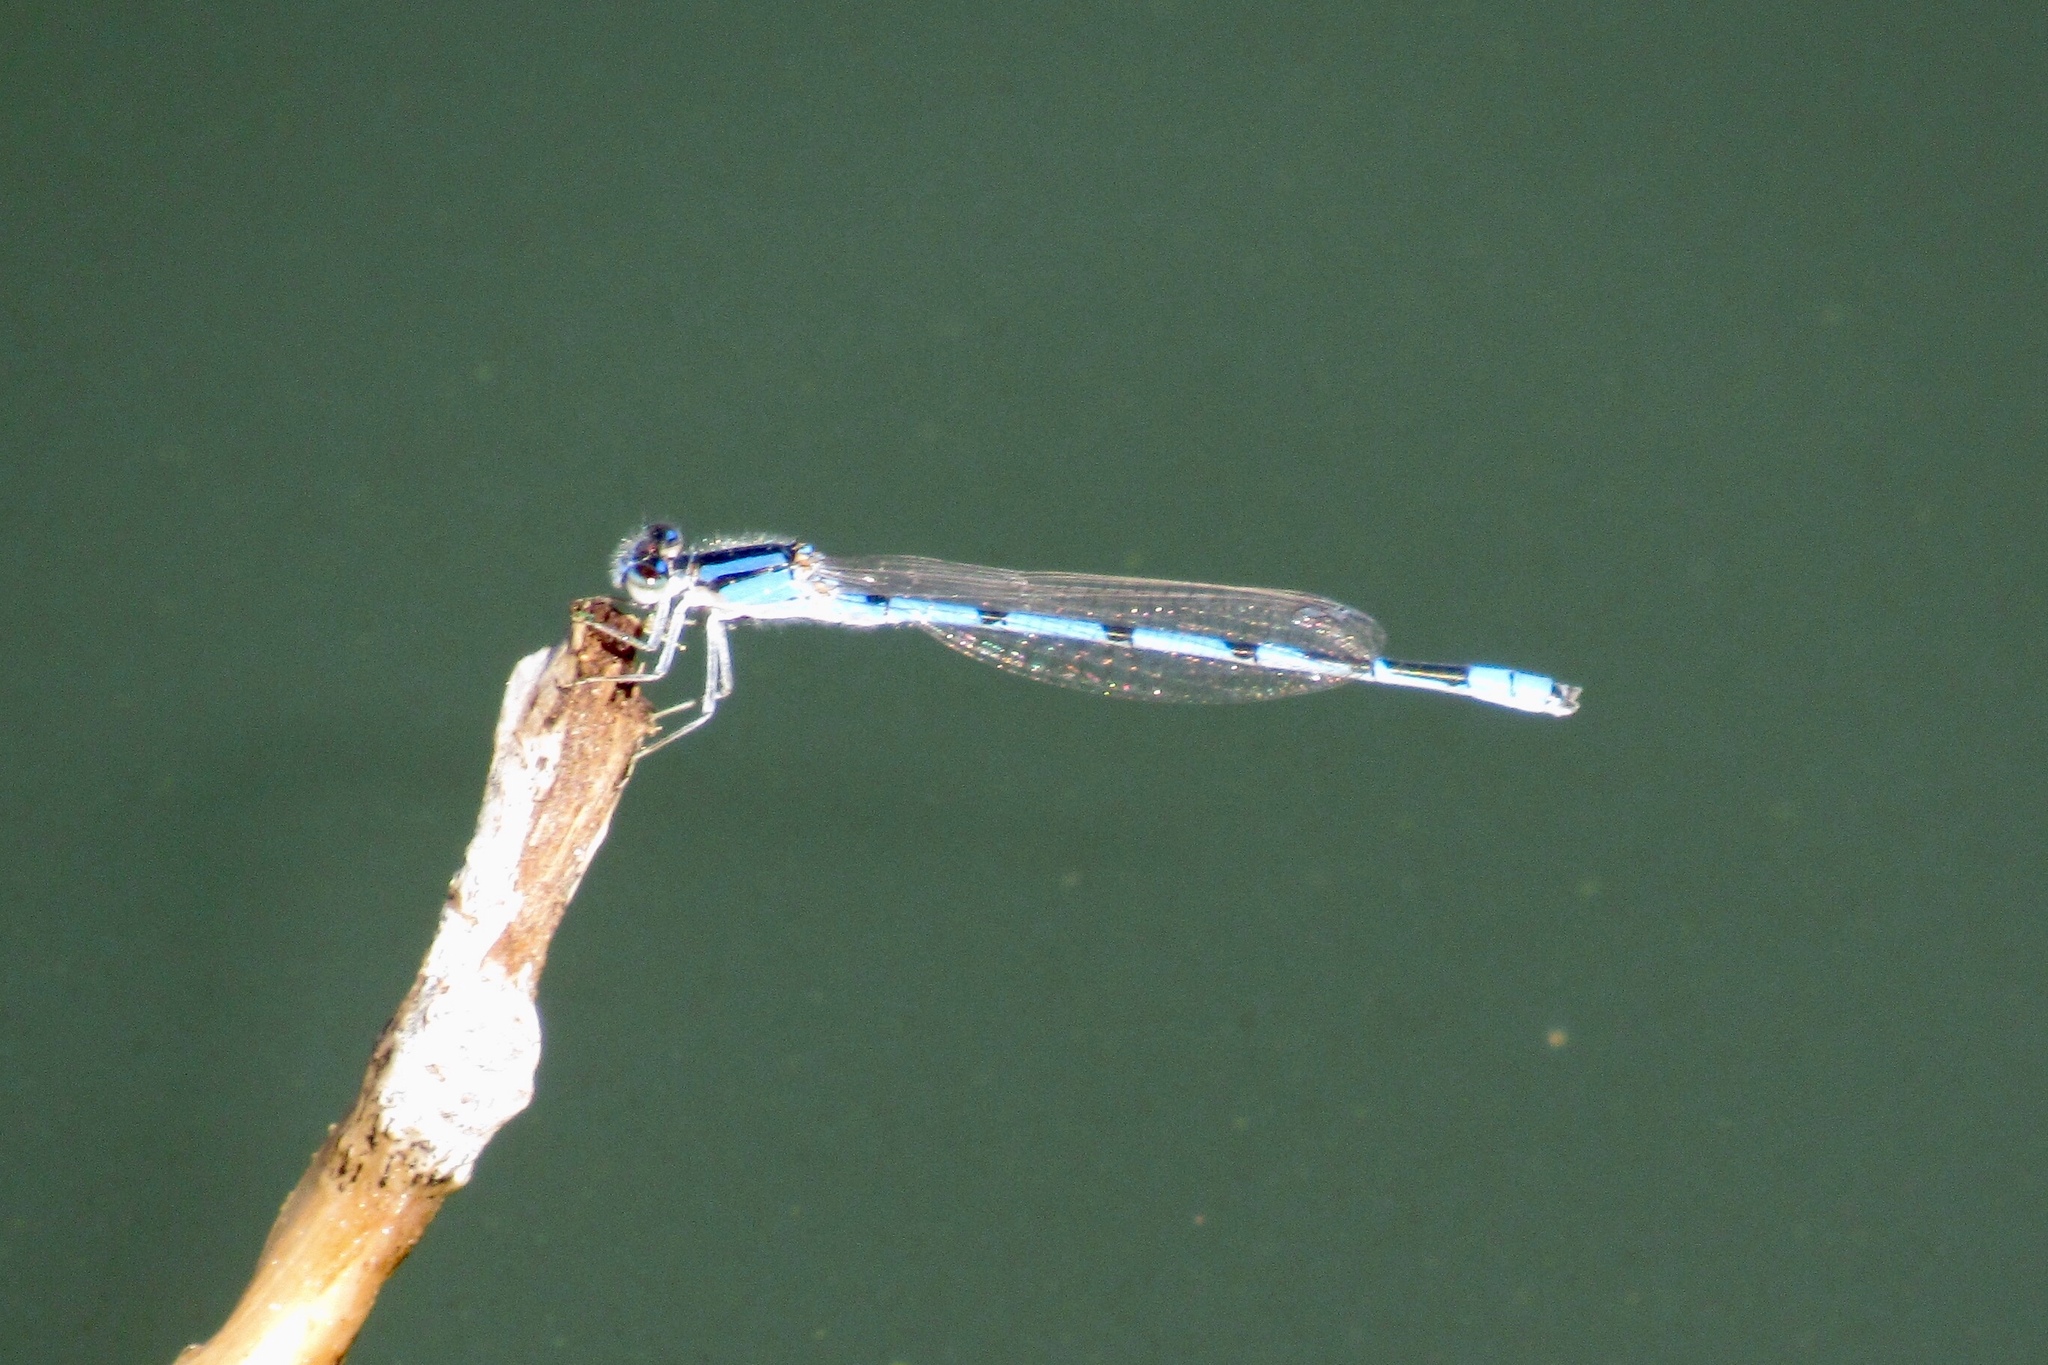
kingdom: Animalia
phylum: Arthropoda
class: Insecta
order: Odonata
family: Coenagrionidae
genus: Enallagma
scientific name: Enallagma civile
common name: Damselfly
